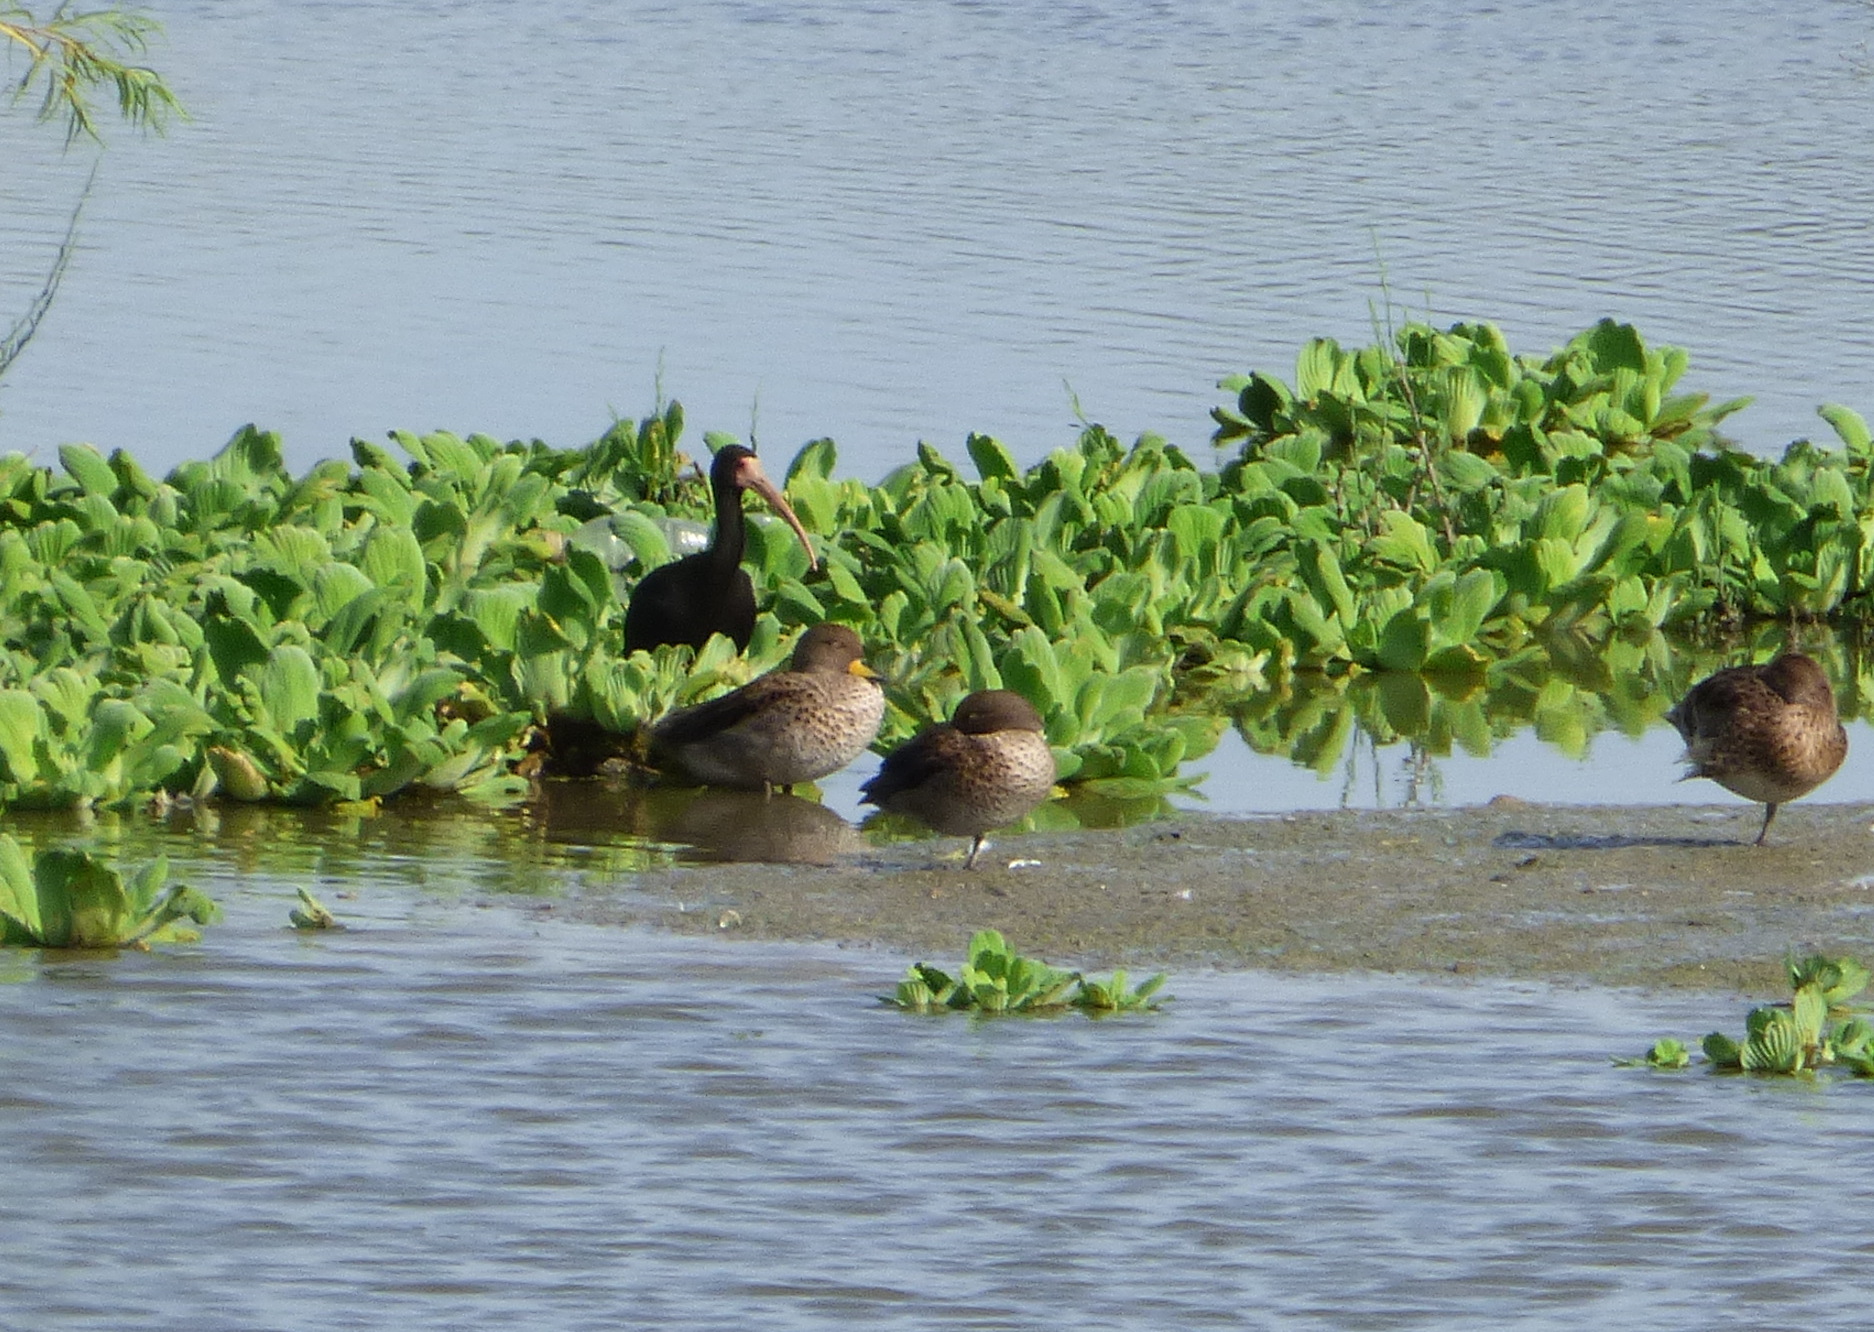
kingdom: Animalia
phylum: Chordata
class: Aves
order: Pelecaniformes
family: Threskiornithidae
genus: Phimosus
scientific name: Phimosus infuscatus
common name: Bare-faced ibis
